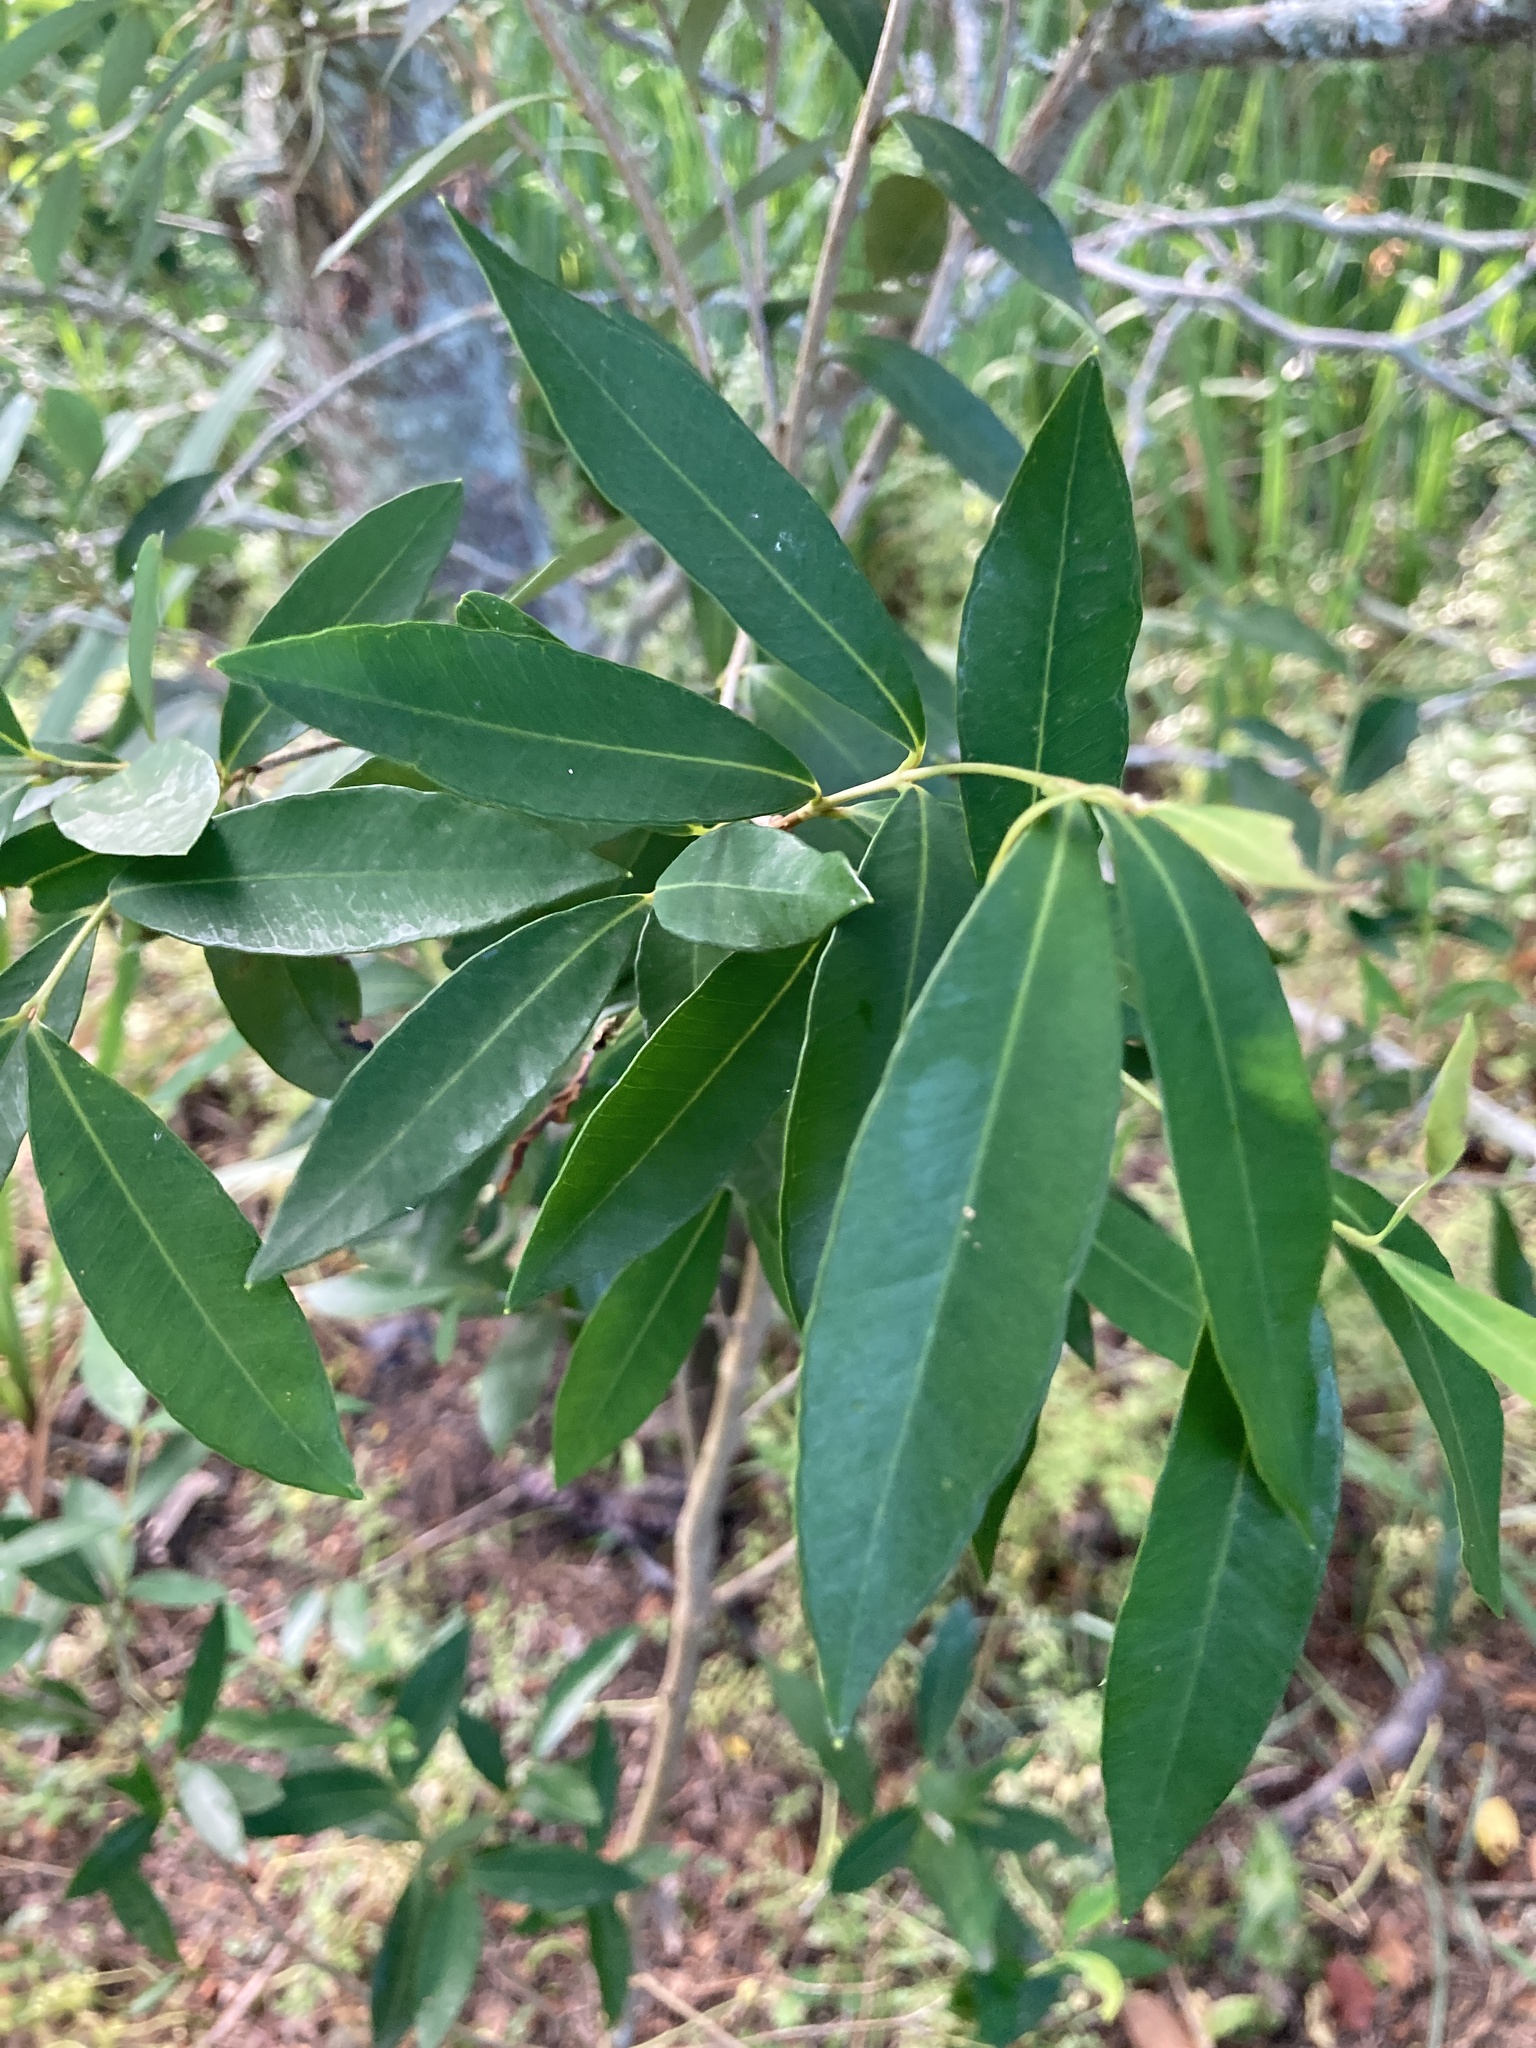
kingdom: Plantae
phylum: Tracheophyta
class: Magnoliopsida
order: Myrtales
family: Myrtaceae
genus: Myrceugenia
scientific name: Myrceugenia glaucescens
